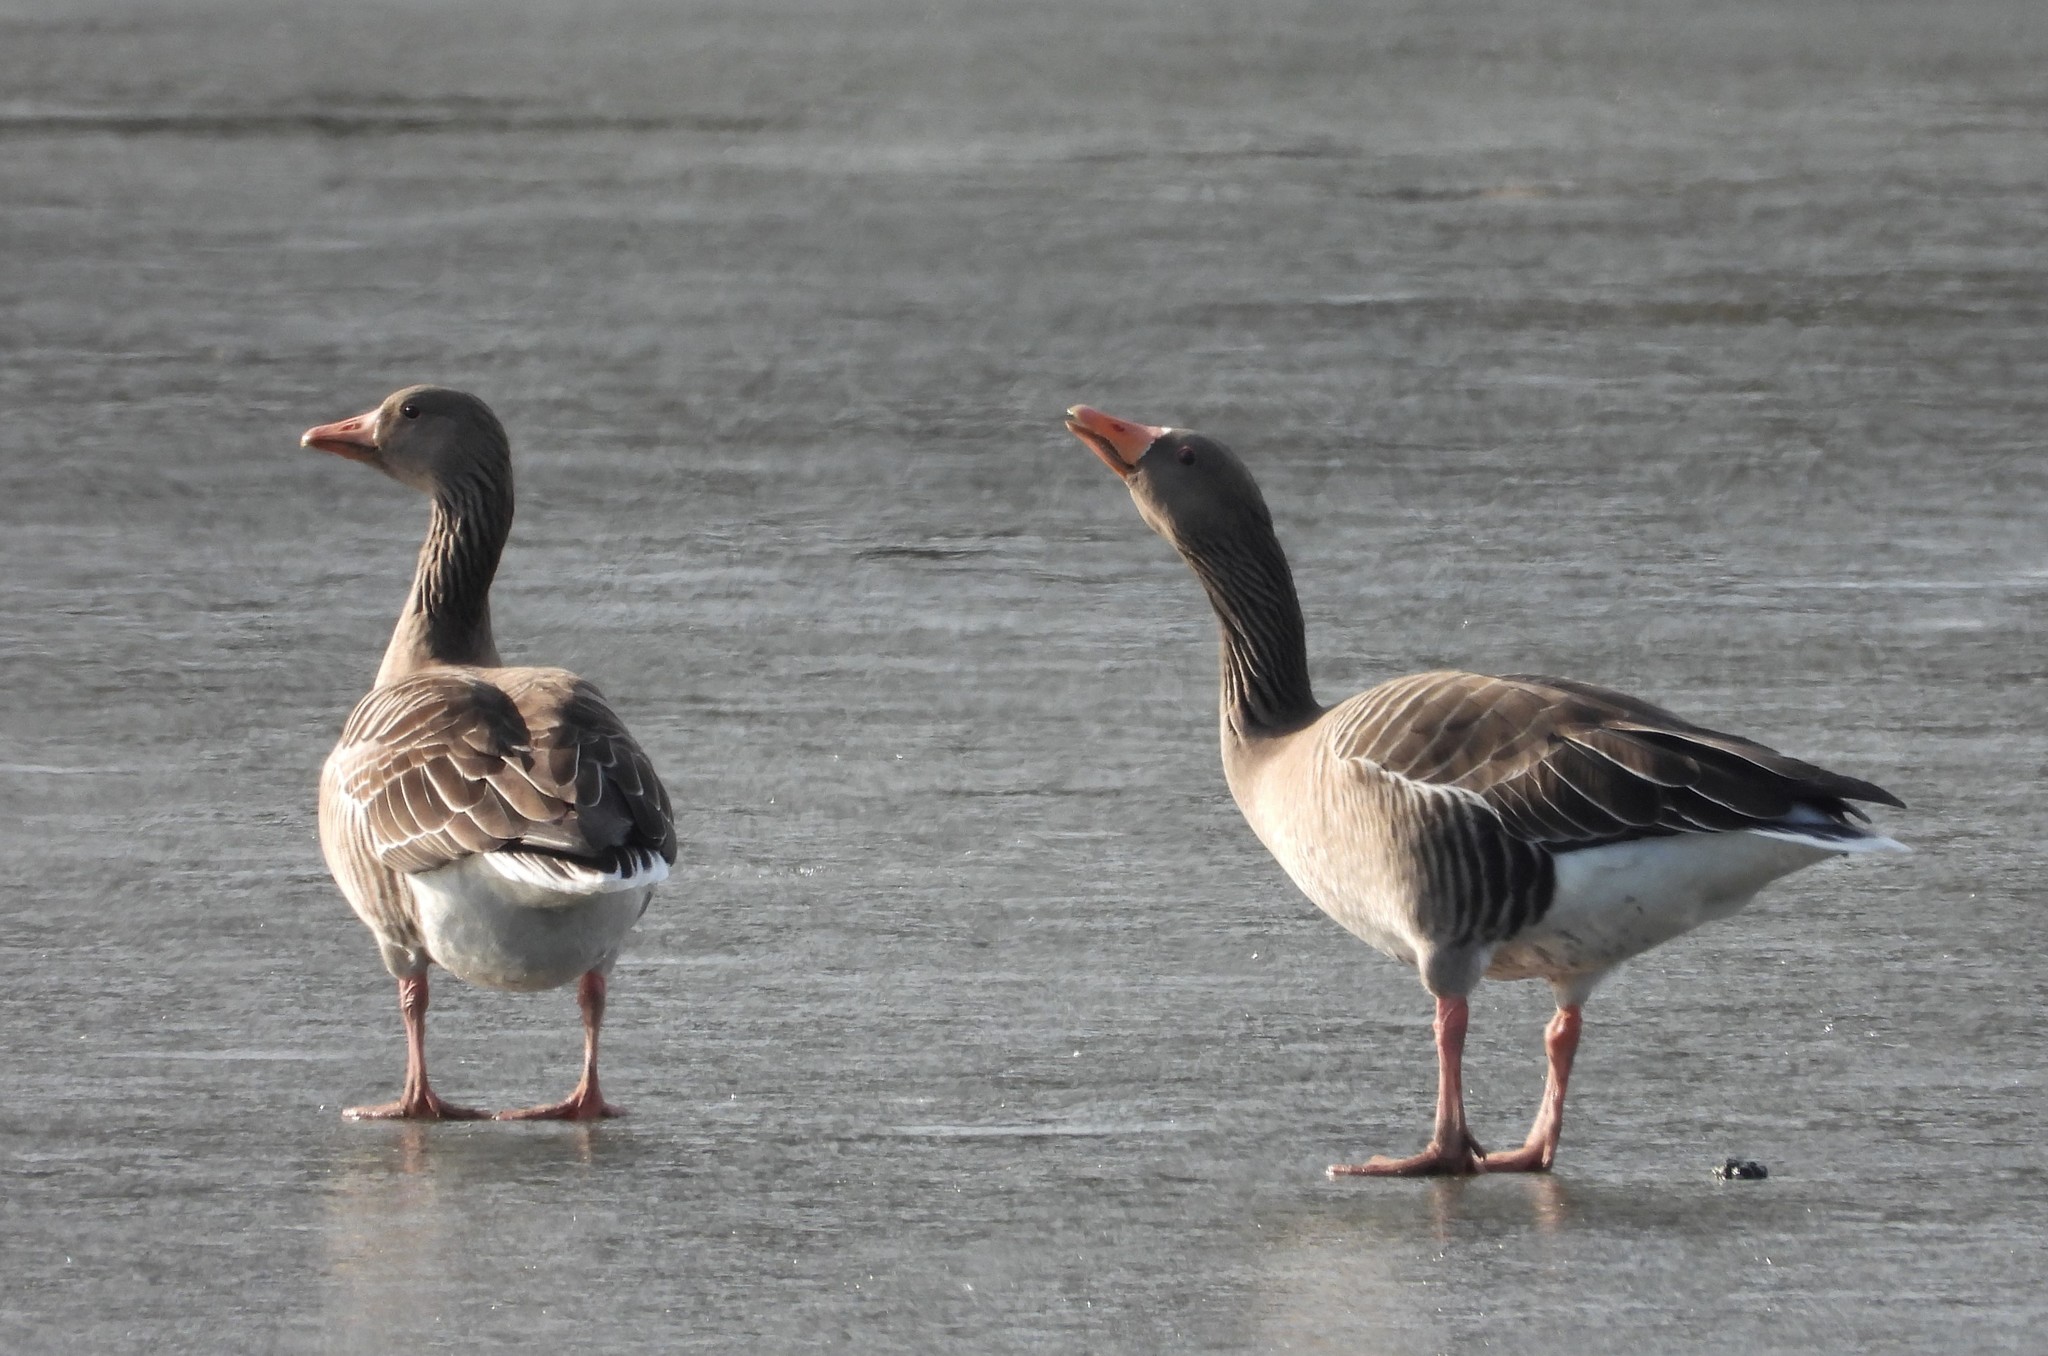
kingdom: Animalia
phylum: Chordata
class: Aves
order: Anseriformes
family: Anatidae
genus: Anser
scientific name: Anser anser
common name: Greylag goose
